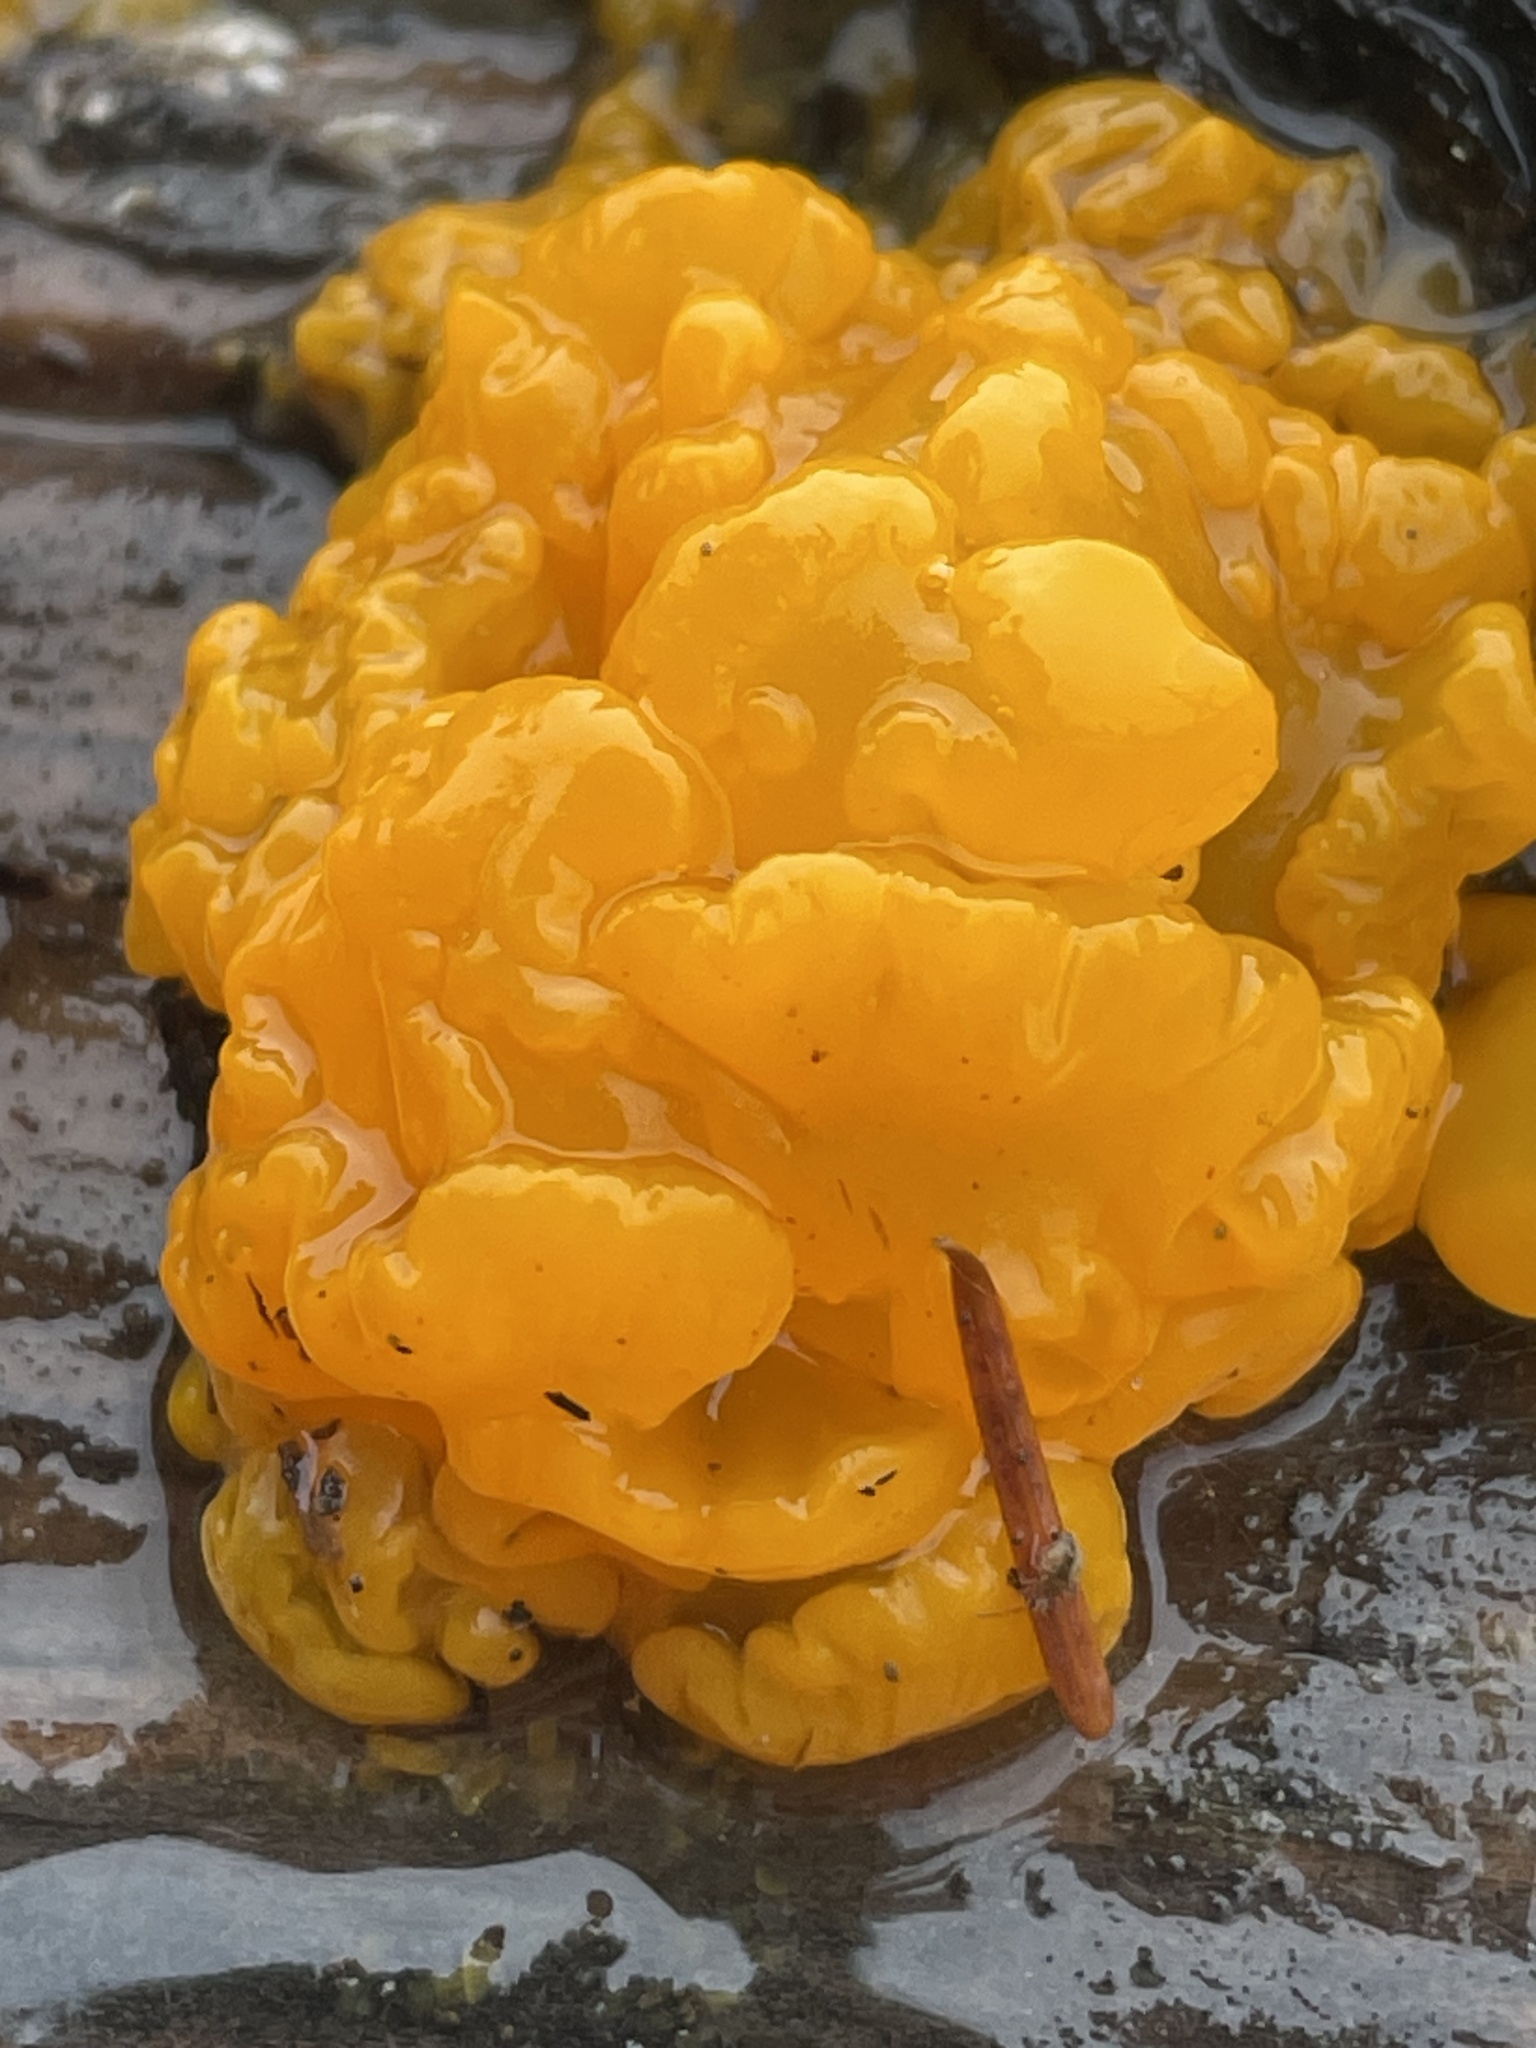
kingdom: Fungi
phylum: Basidiomycota
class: Dacrymycetes
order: Dacrymycetales
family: Dacrymycetaceae
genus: Dacrymyces
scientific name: Dacrymyces chrysospermus
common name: Orange jelly spot
